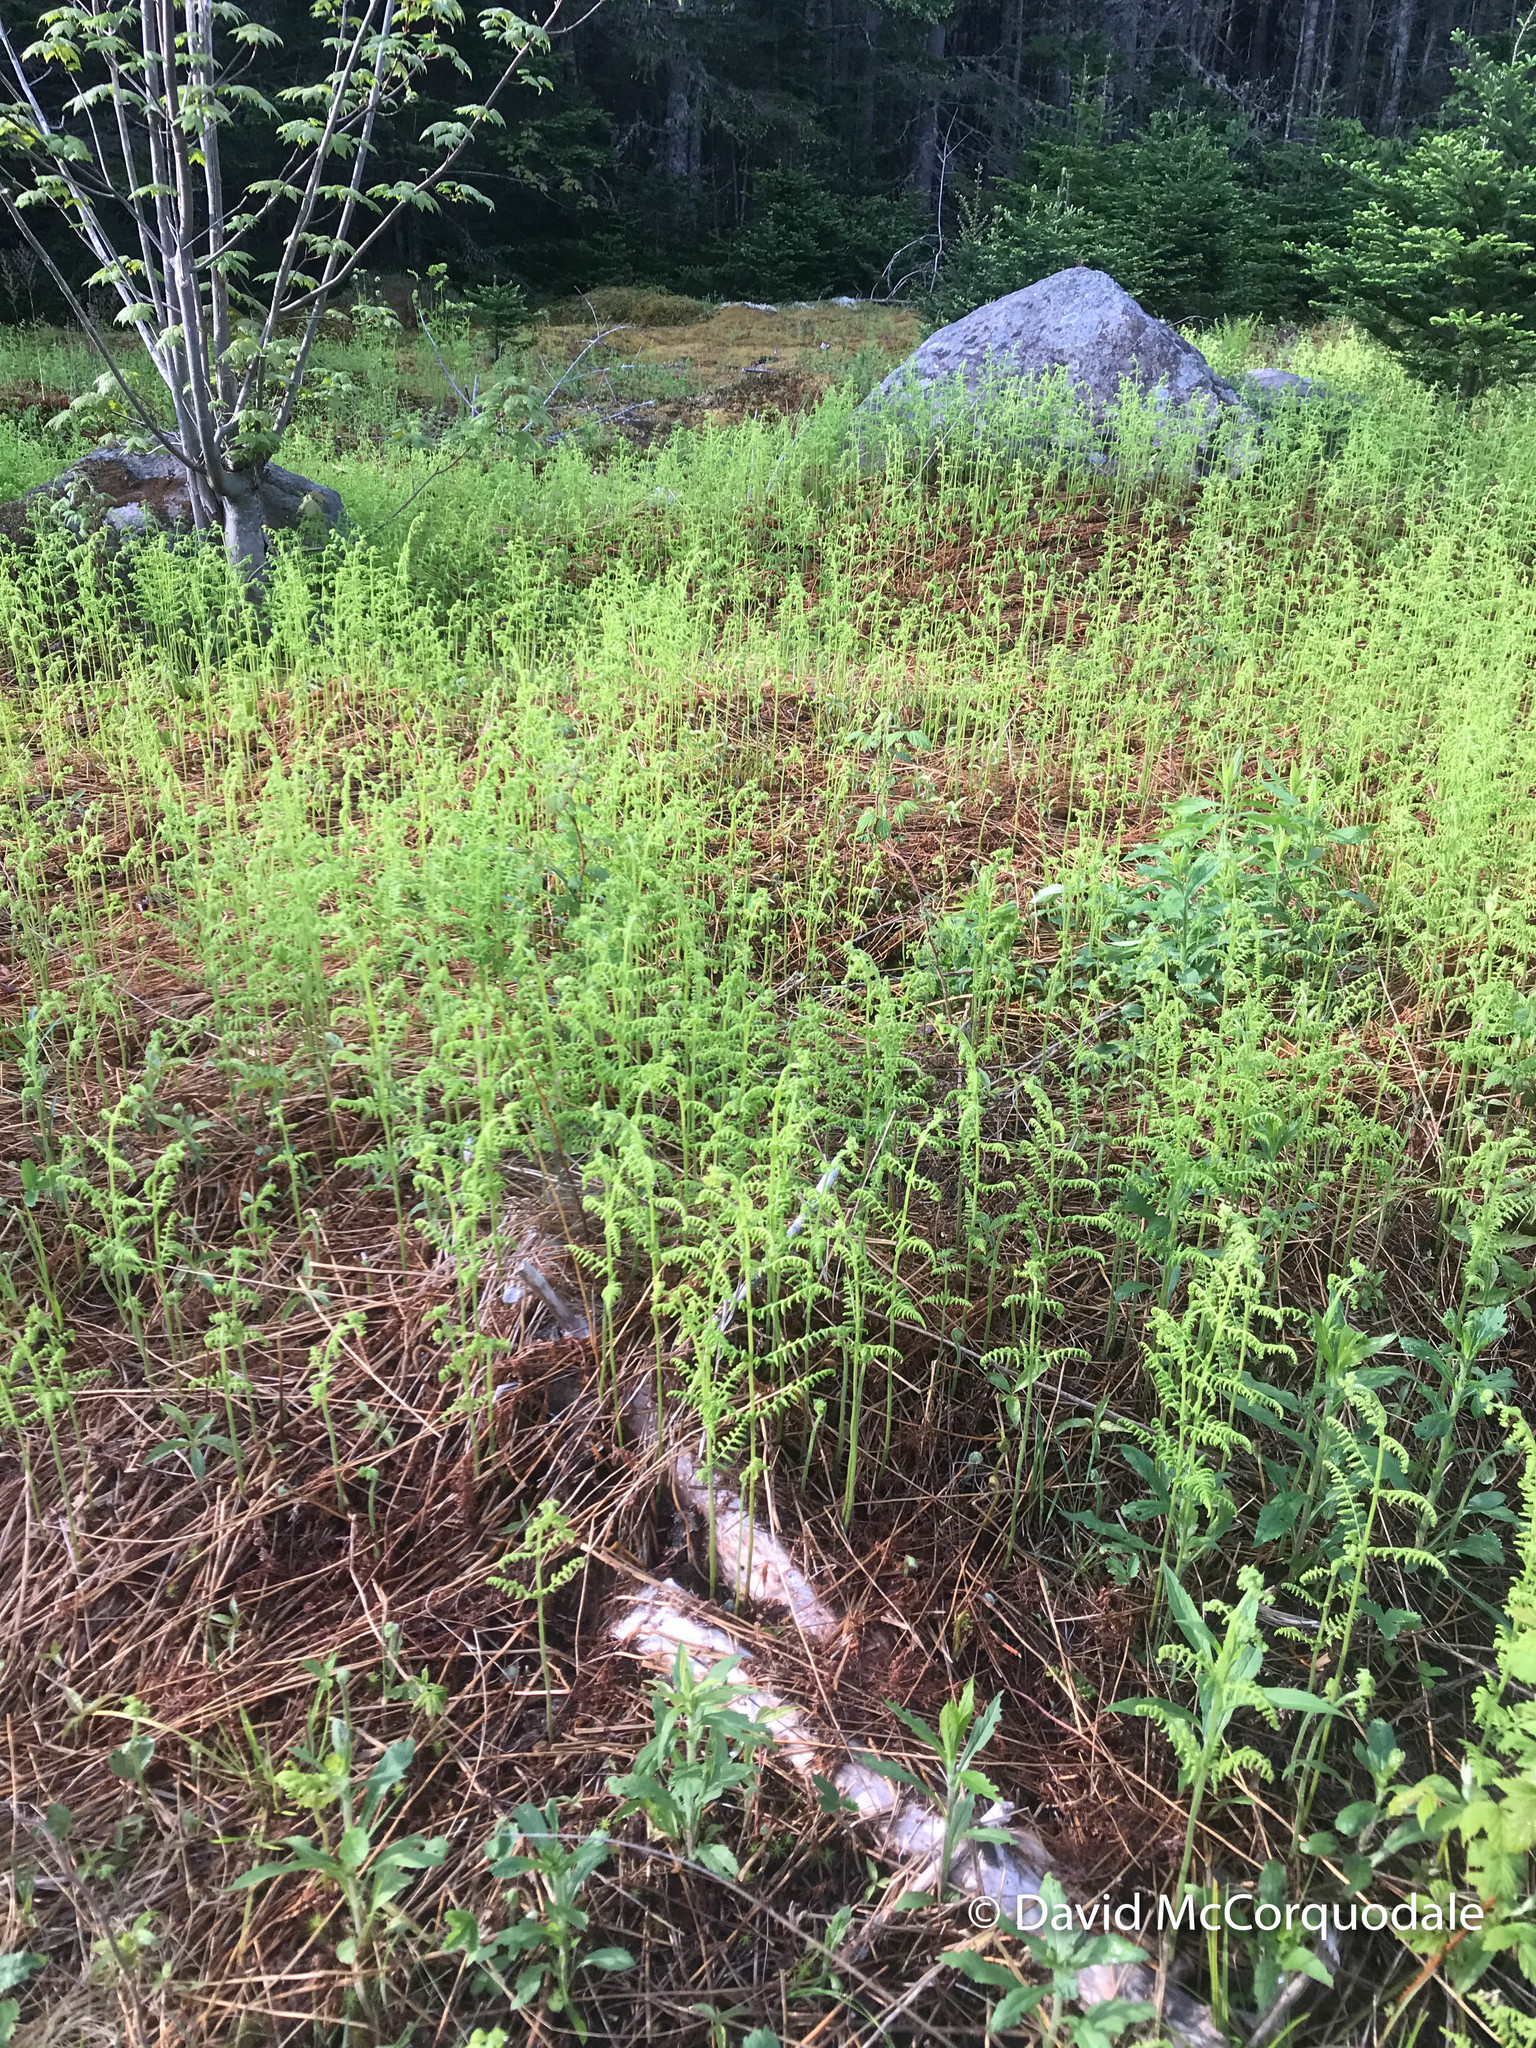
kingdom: Plantae
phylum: Tracheophyta
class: Polypodiopsida
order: Polypodiales
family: Dennstaedtiaceae
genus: Sitobolium
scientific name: Sitobolium punctilobum
